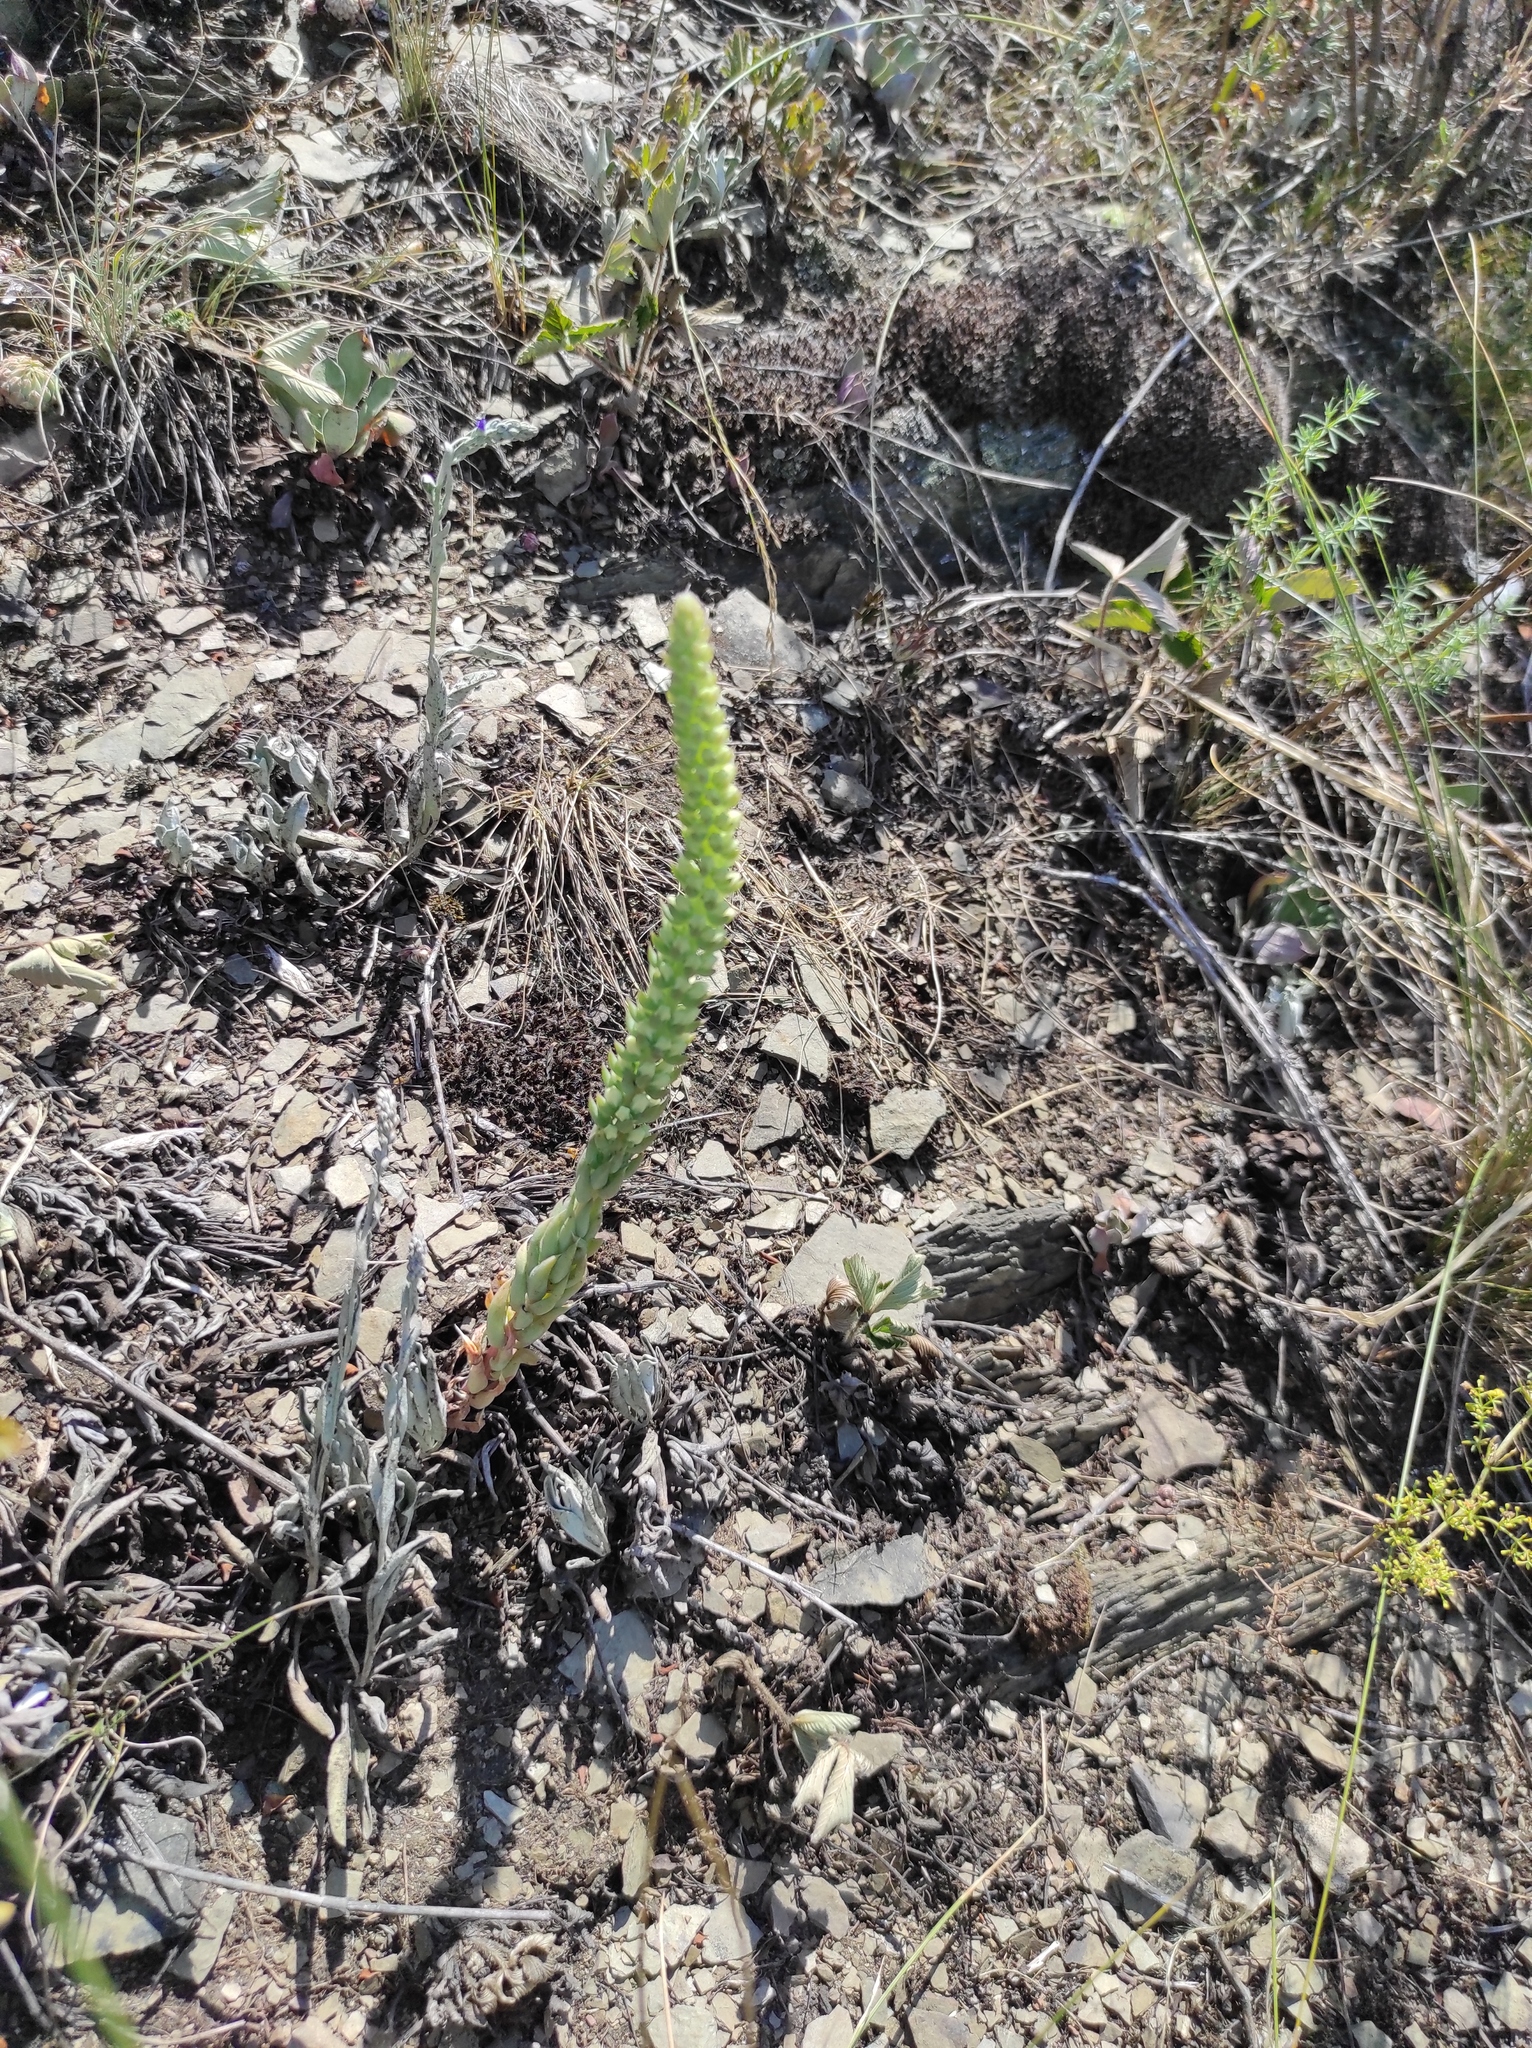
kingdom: Plantae
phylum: Tracheophyta
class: Magnoliopsida
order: Saxifragales
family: Crassulaceae
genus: Orostachys
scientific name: Orostachys spinosa
